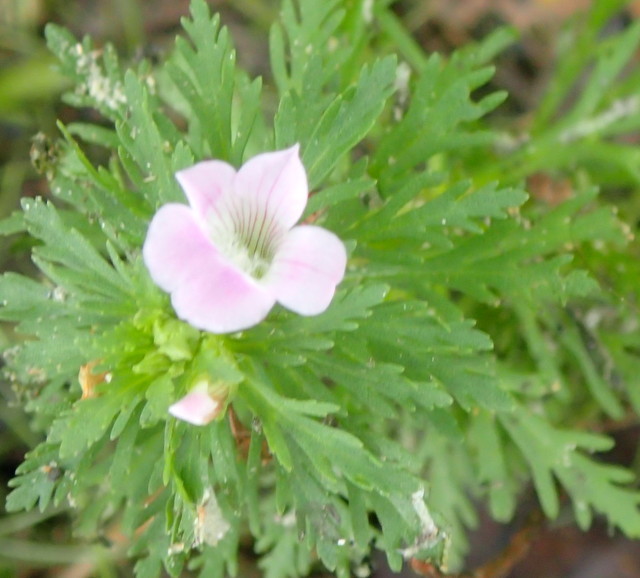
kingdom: Plantae
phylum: Tracheophyta
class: Magnoliopsida
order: Lamiales
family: Plantaginaceae
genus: Limnophila
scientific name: Limnophila sessiliflora
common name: Asian marshweed
